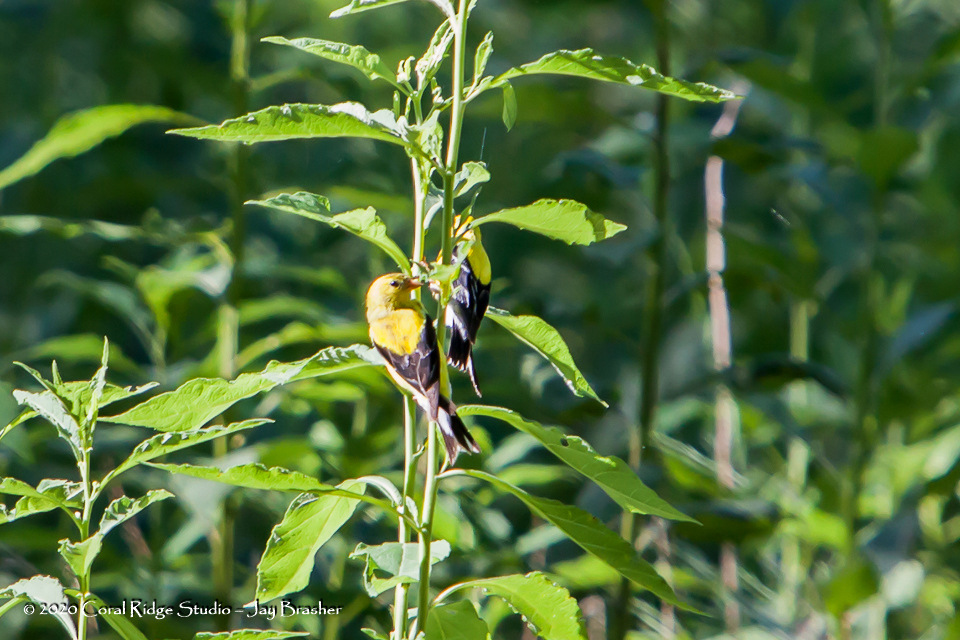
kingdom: Animalia
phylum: Chordata
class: Aves
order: Passeriformes
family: Fringillidae
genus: Spinus
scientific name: Spinus tristis
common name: American goldfinch
